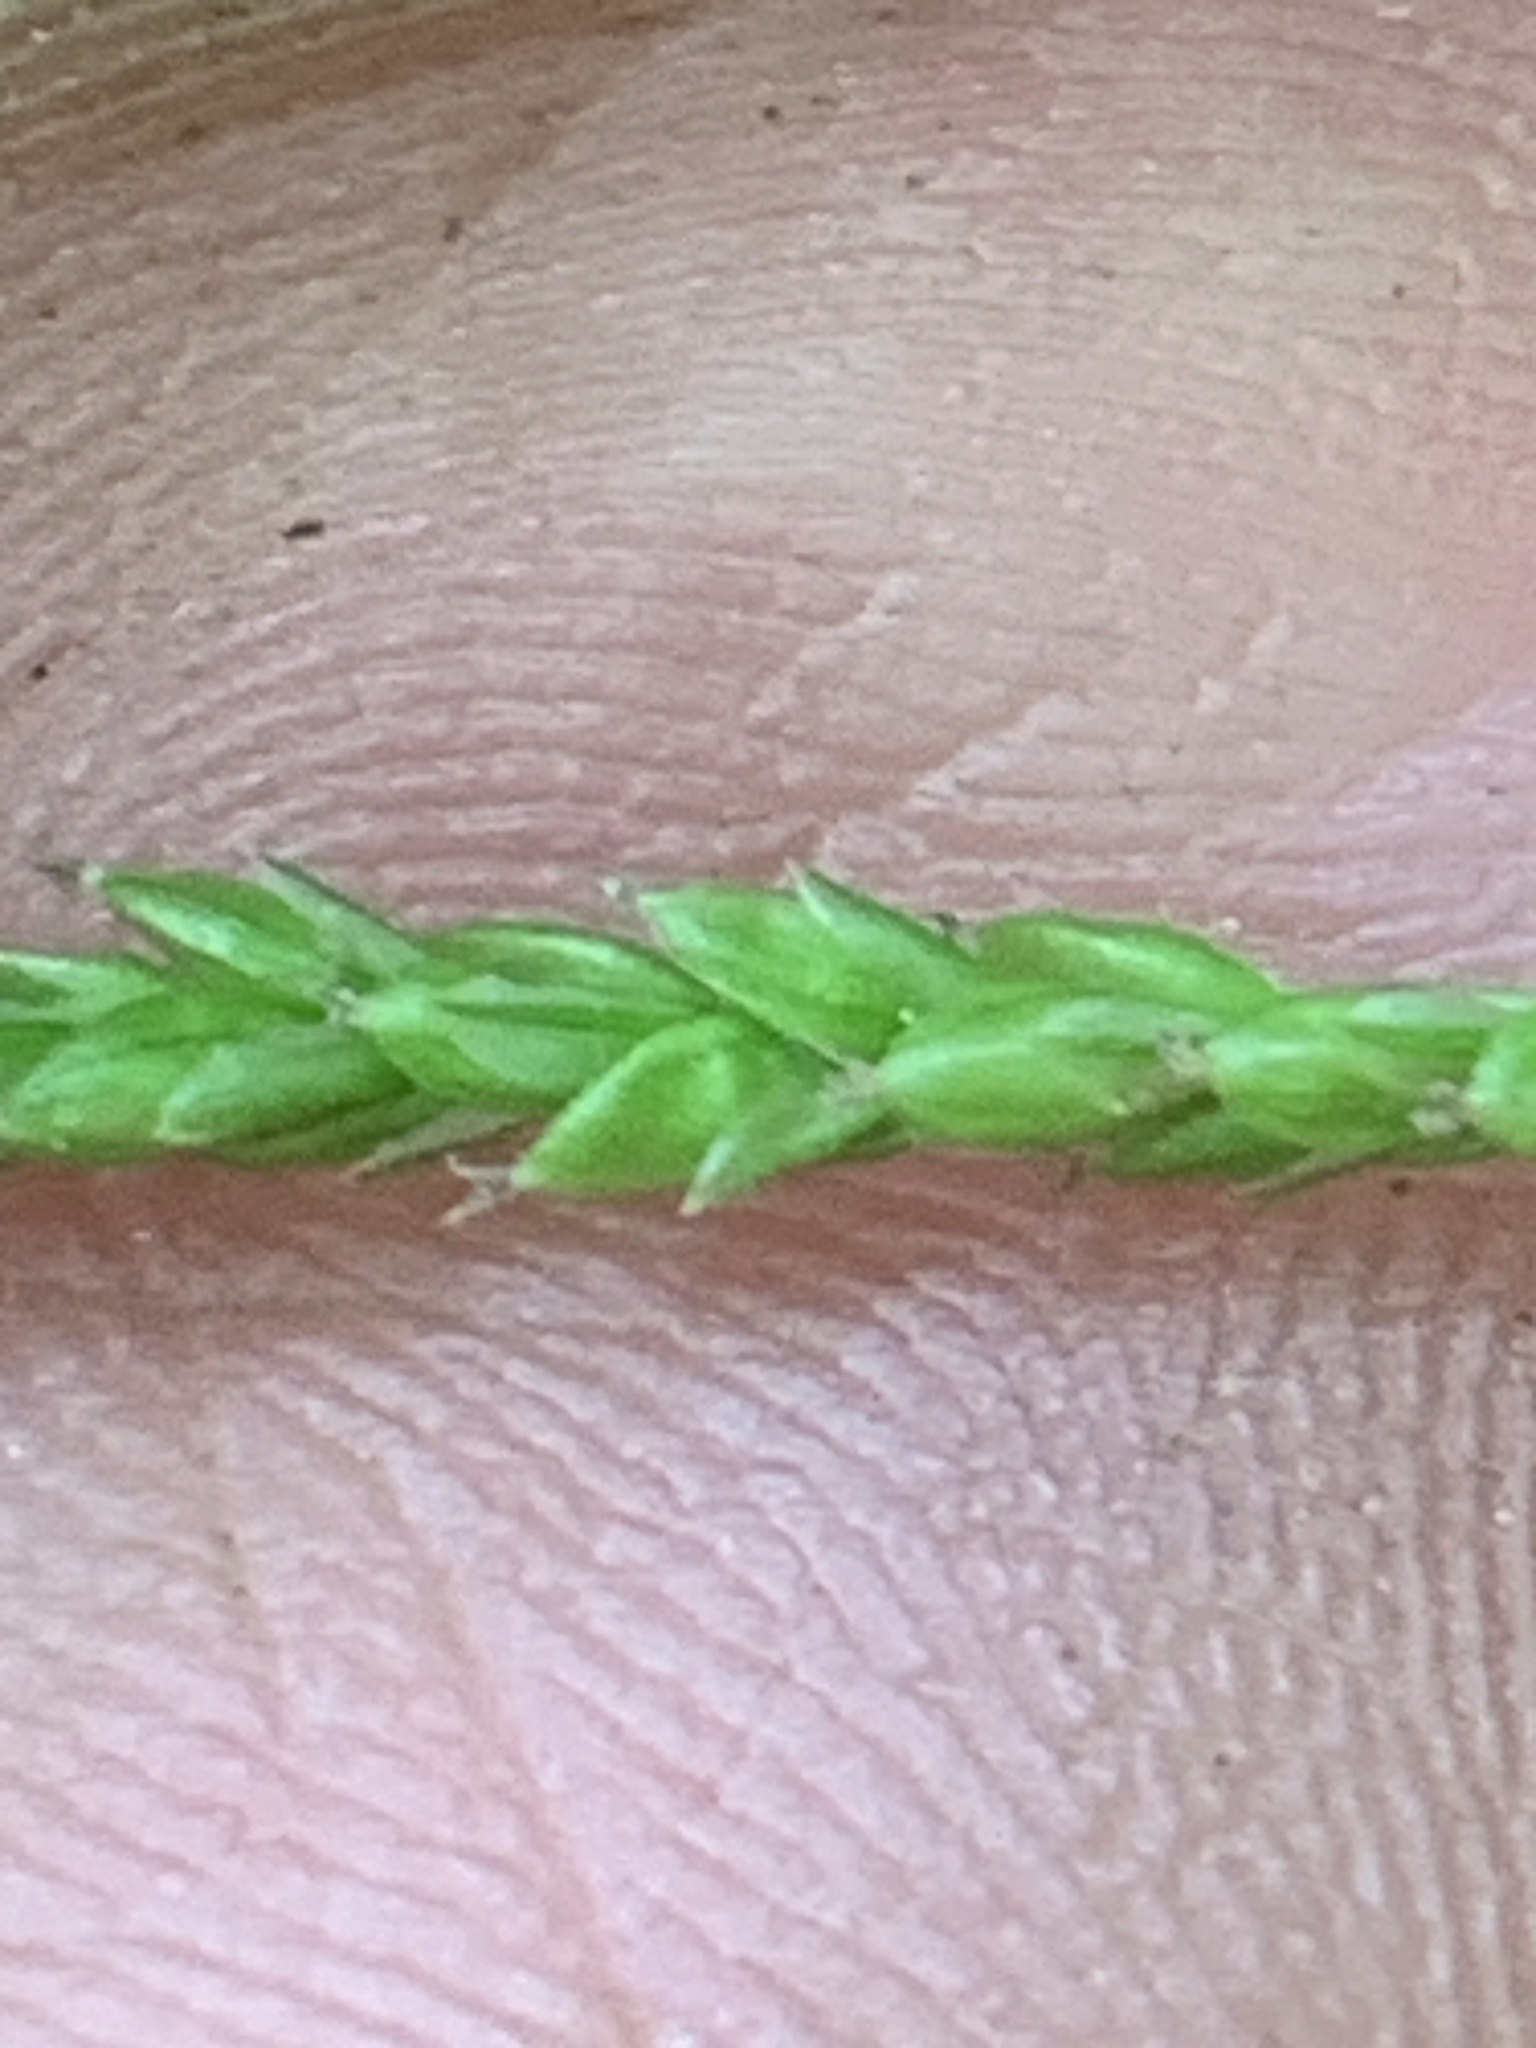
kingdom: Plantae
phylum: Tracheophyta
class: Liliopsida
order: Poales
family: Cyperaceae
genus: Carex
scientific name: Carex gracillima
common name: Graceful sedge
